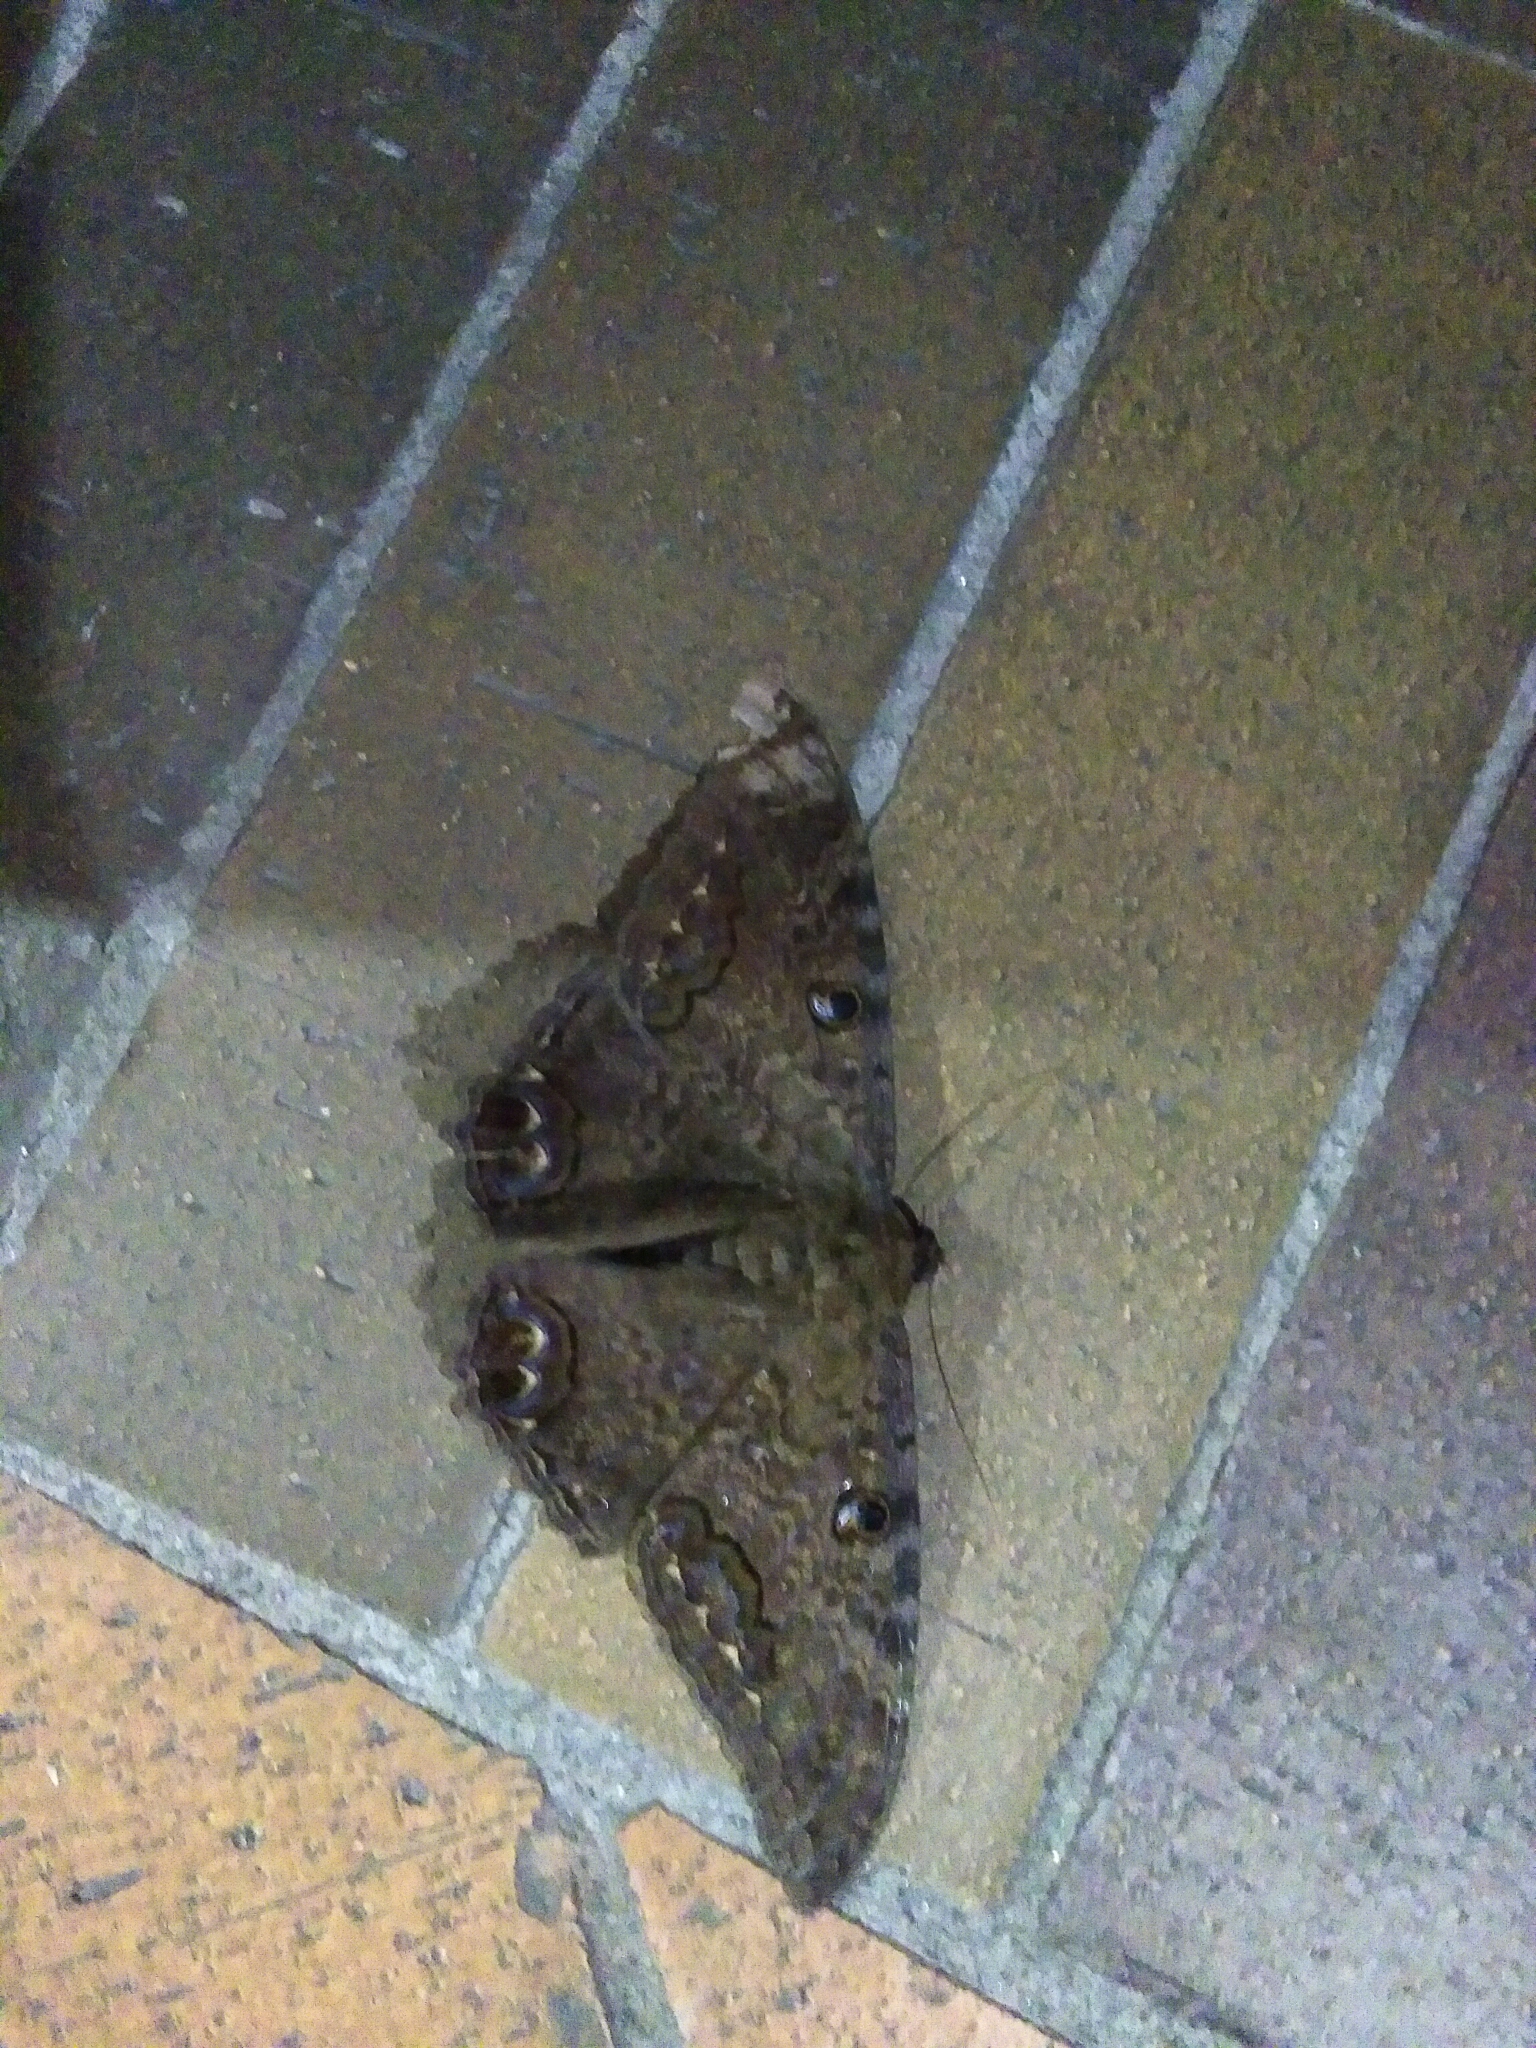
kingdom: Animalia
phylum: Arthropoda
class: Insecta
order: Lepidoptera
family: Erebidae
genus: Ascalapha
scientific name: Ascalapha odorata
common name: Black witch
